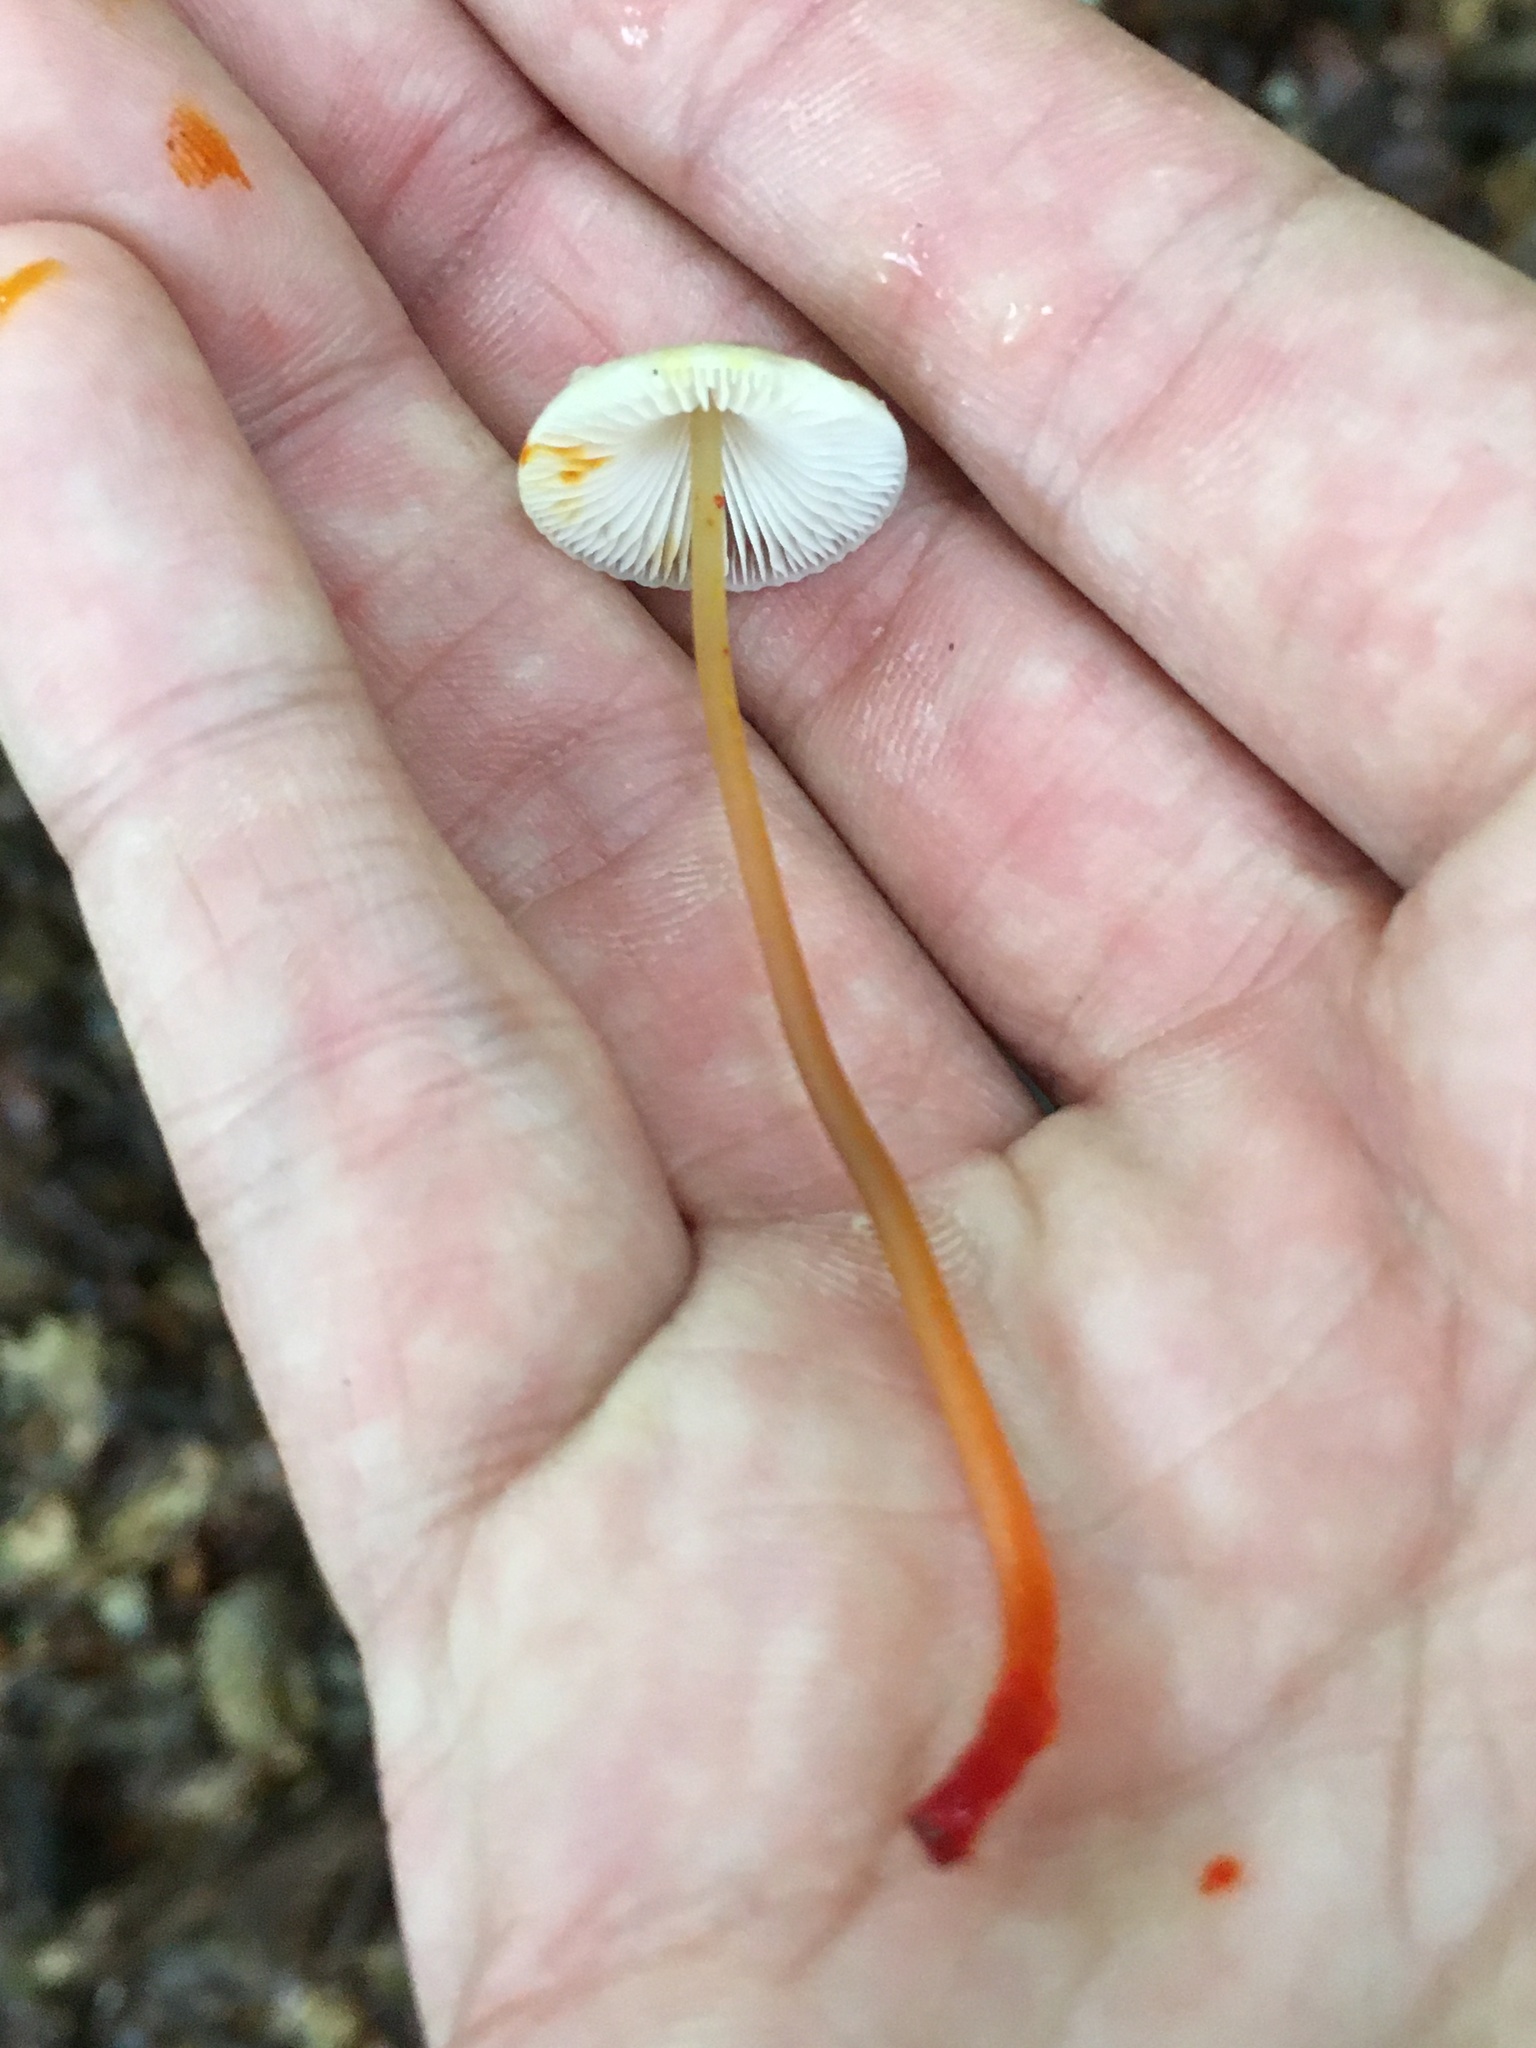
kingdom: Fungi
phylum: Basidiomycota
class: Agaricomycetes
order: Agaricales
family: Mycenaceae
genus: Mycena
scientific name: Mycena crocata
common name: Saffrondrop bonnet
